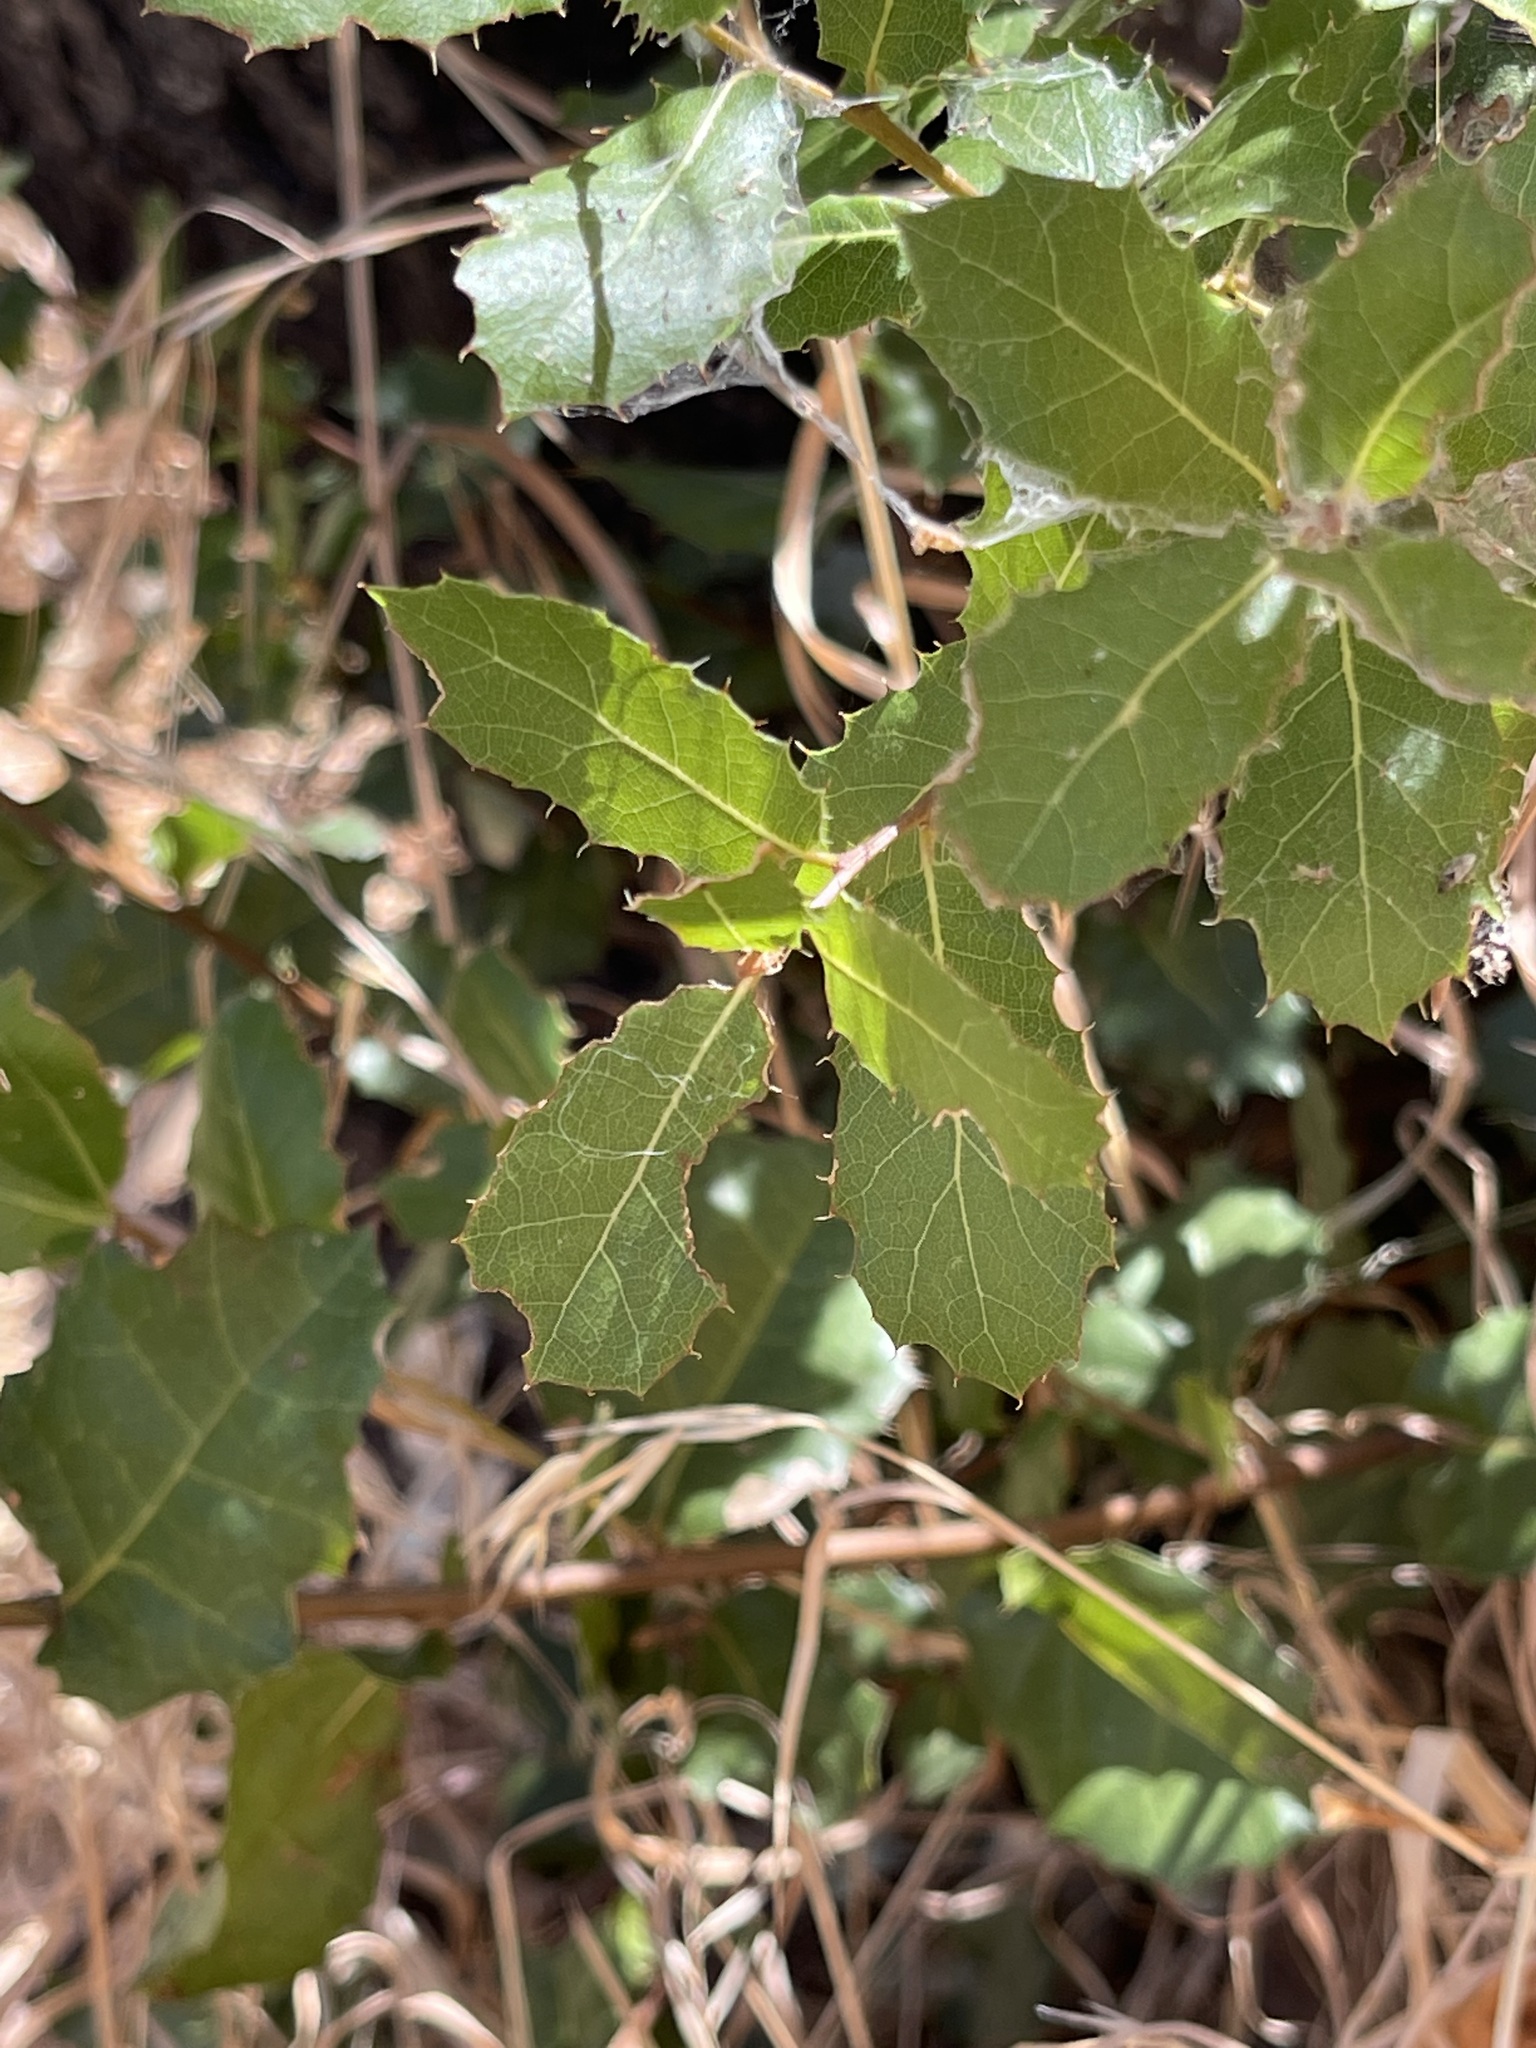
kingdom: Plantae
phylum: Tracheophyta
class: Magnoliopsida
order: Fagales
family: Fagaceae
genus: Quercus
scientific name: Quercus wislizeni
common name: Interior live oak
